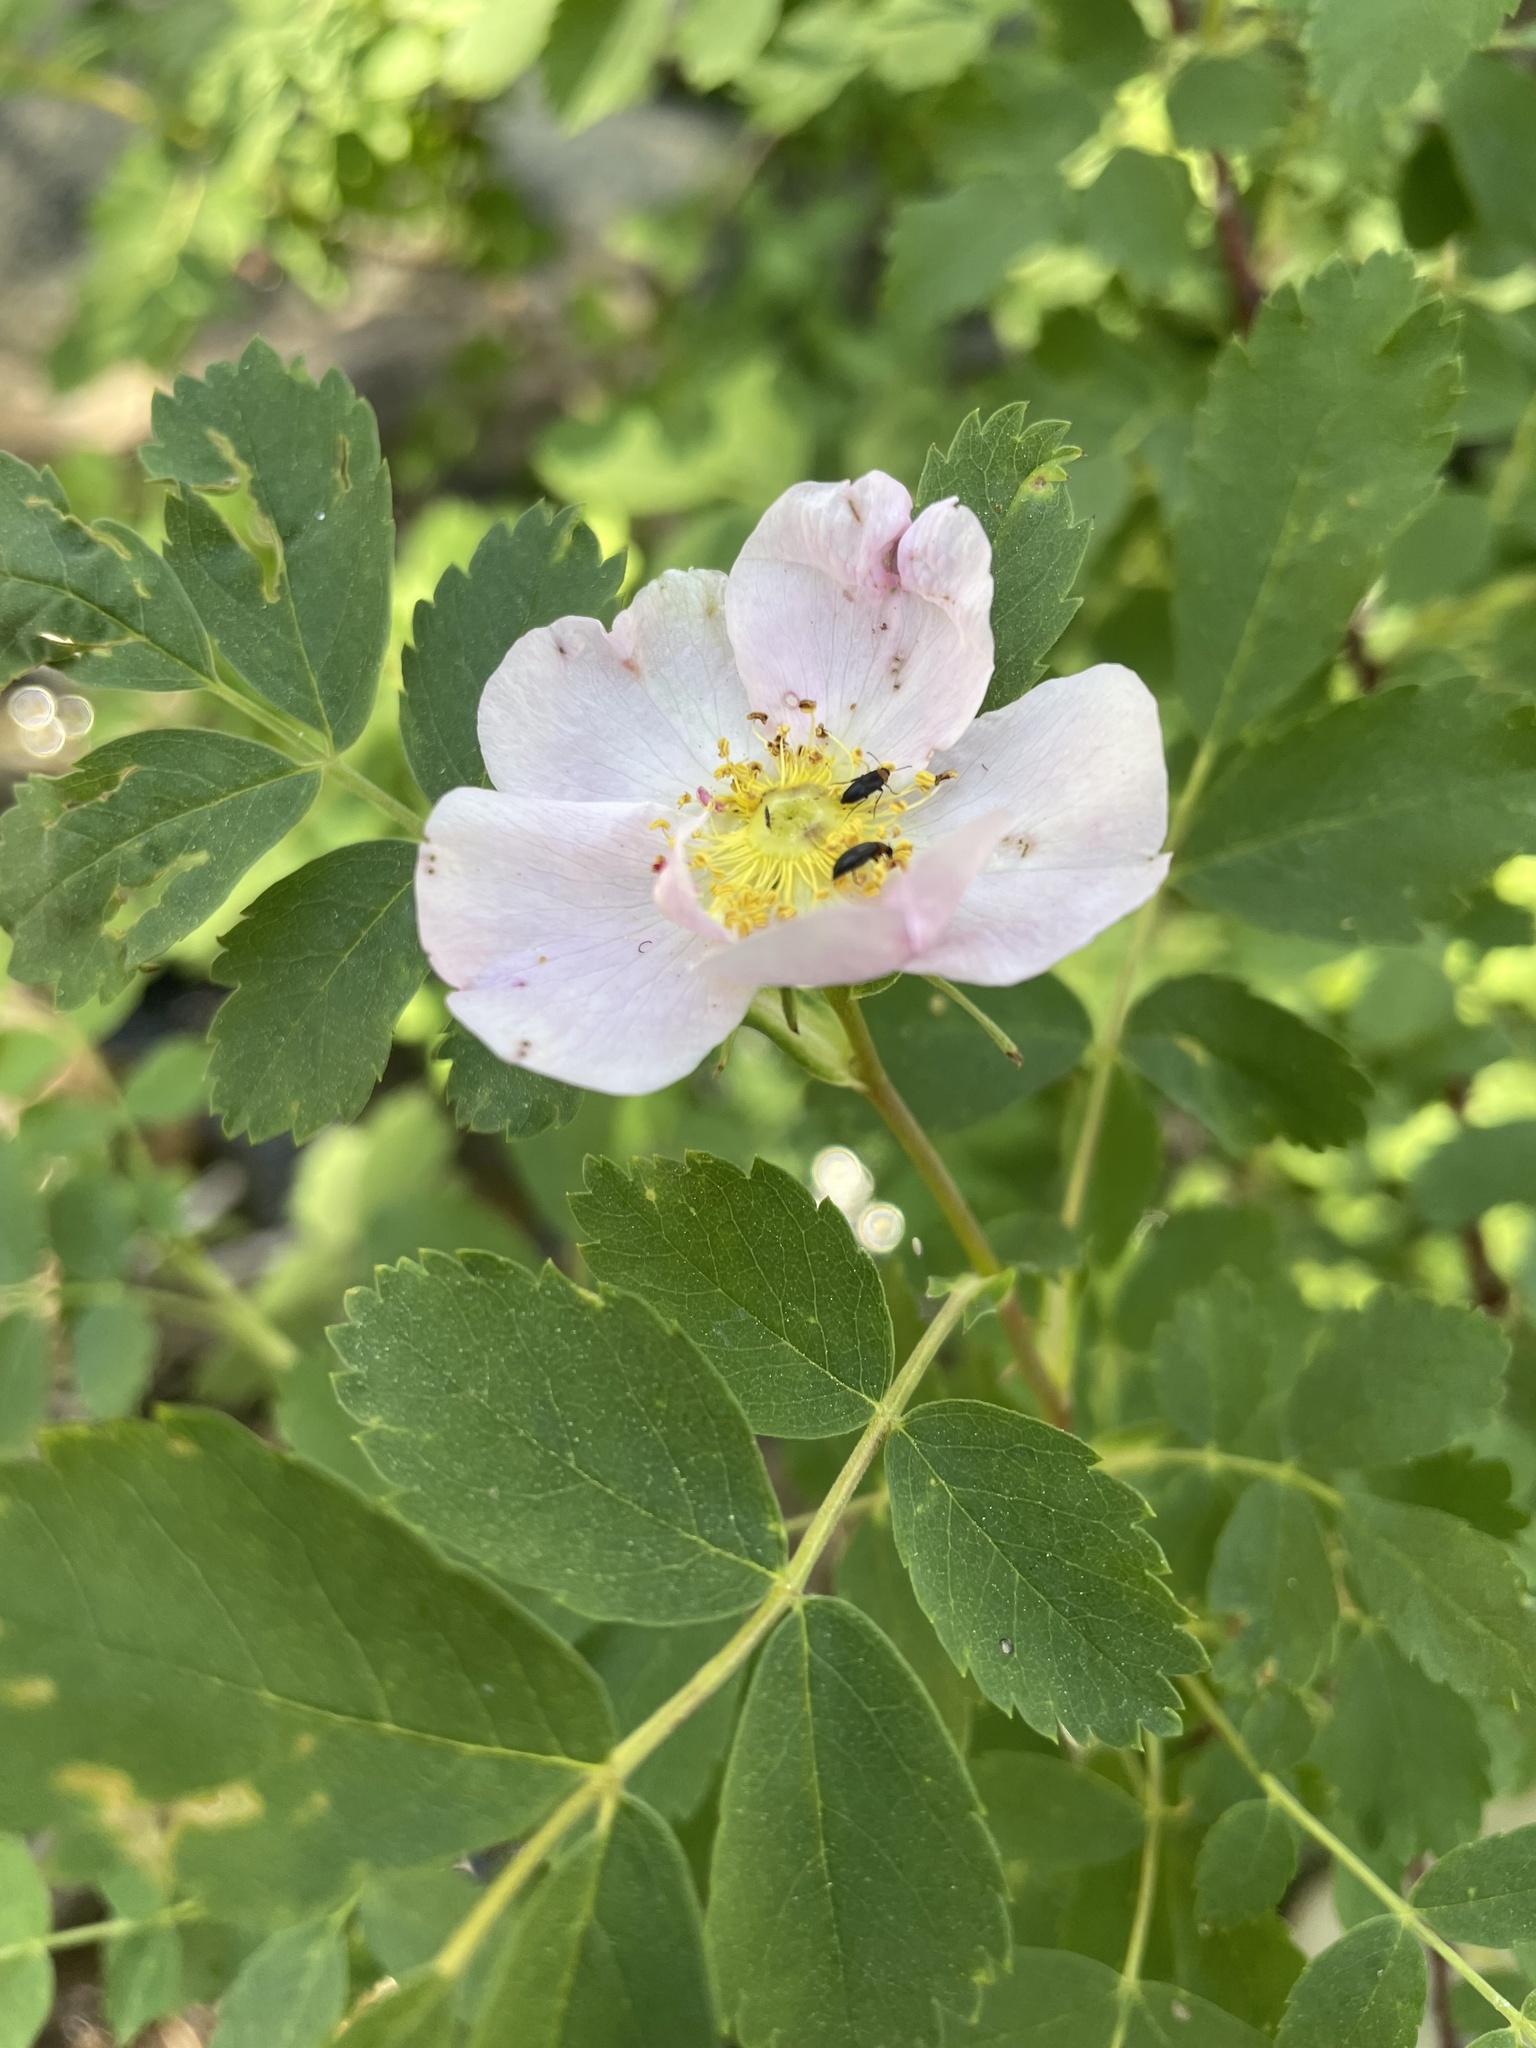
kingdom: Plantae
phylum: Tracheophyta
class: Magnoliopsida
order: Rosales
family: Rosaceae
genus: Rosa
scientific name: Rosa woodsii
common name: Woods's rose
